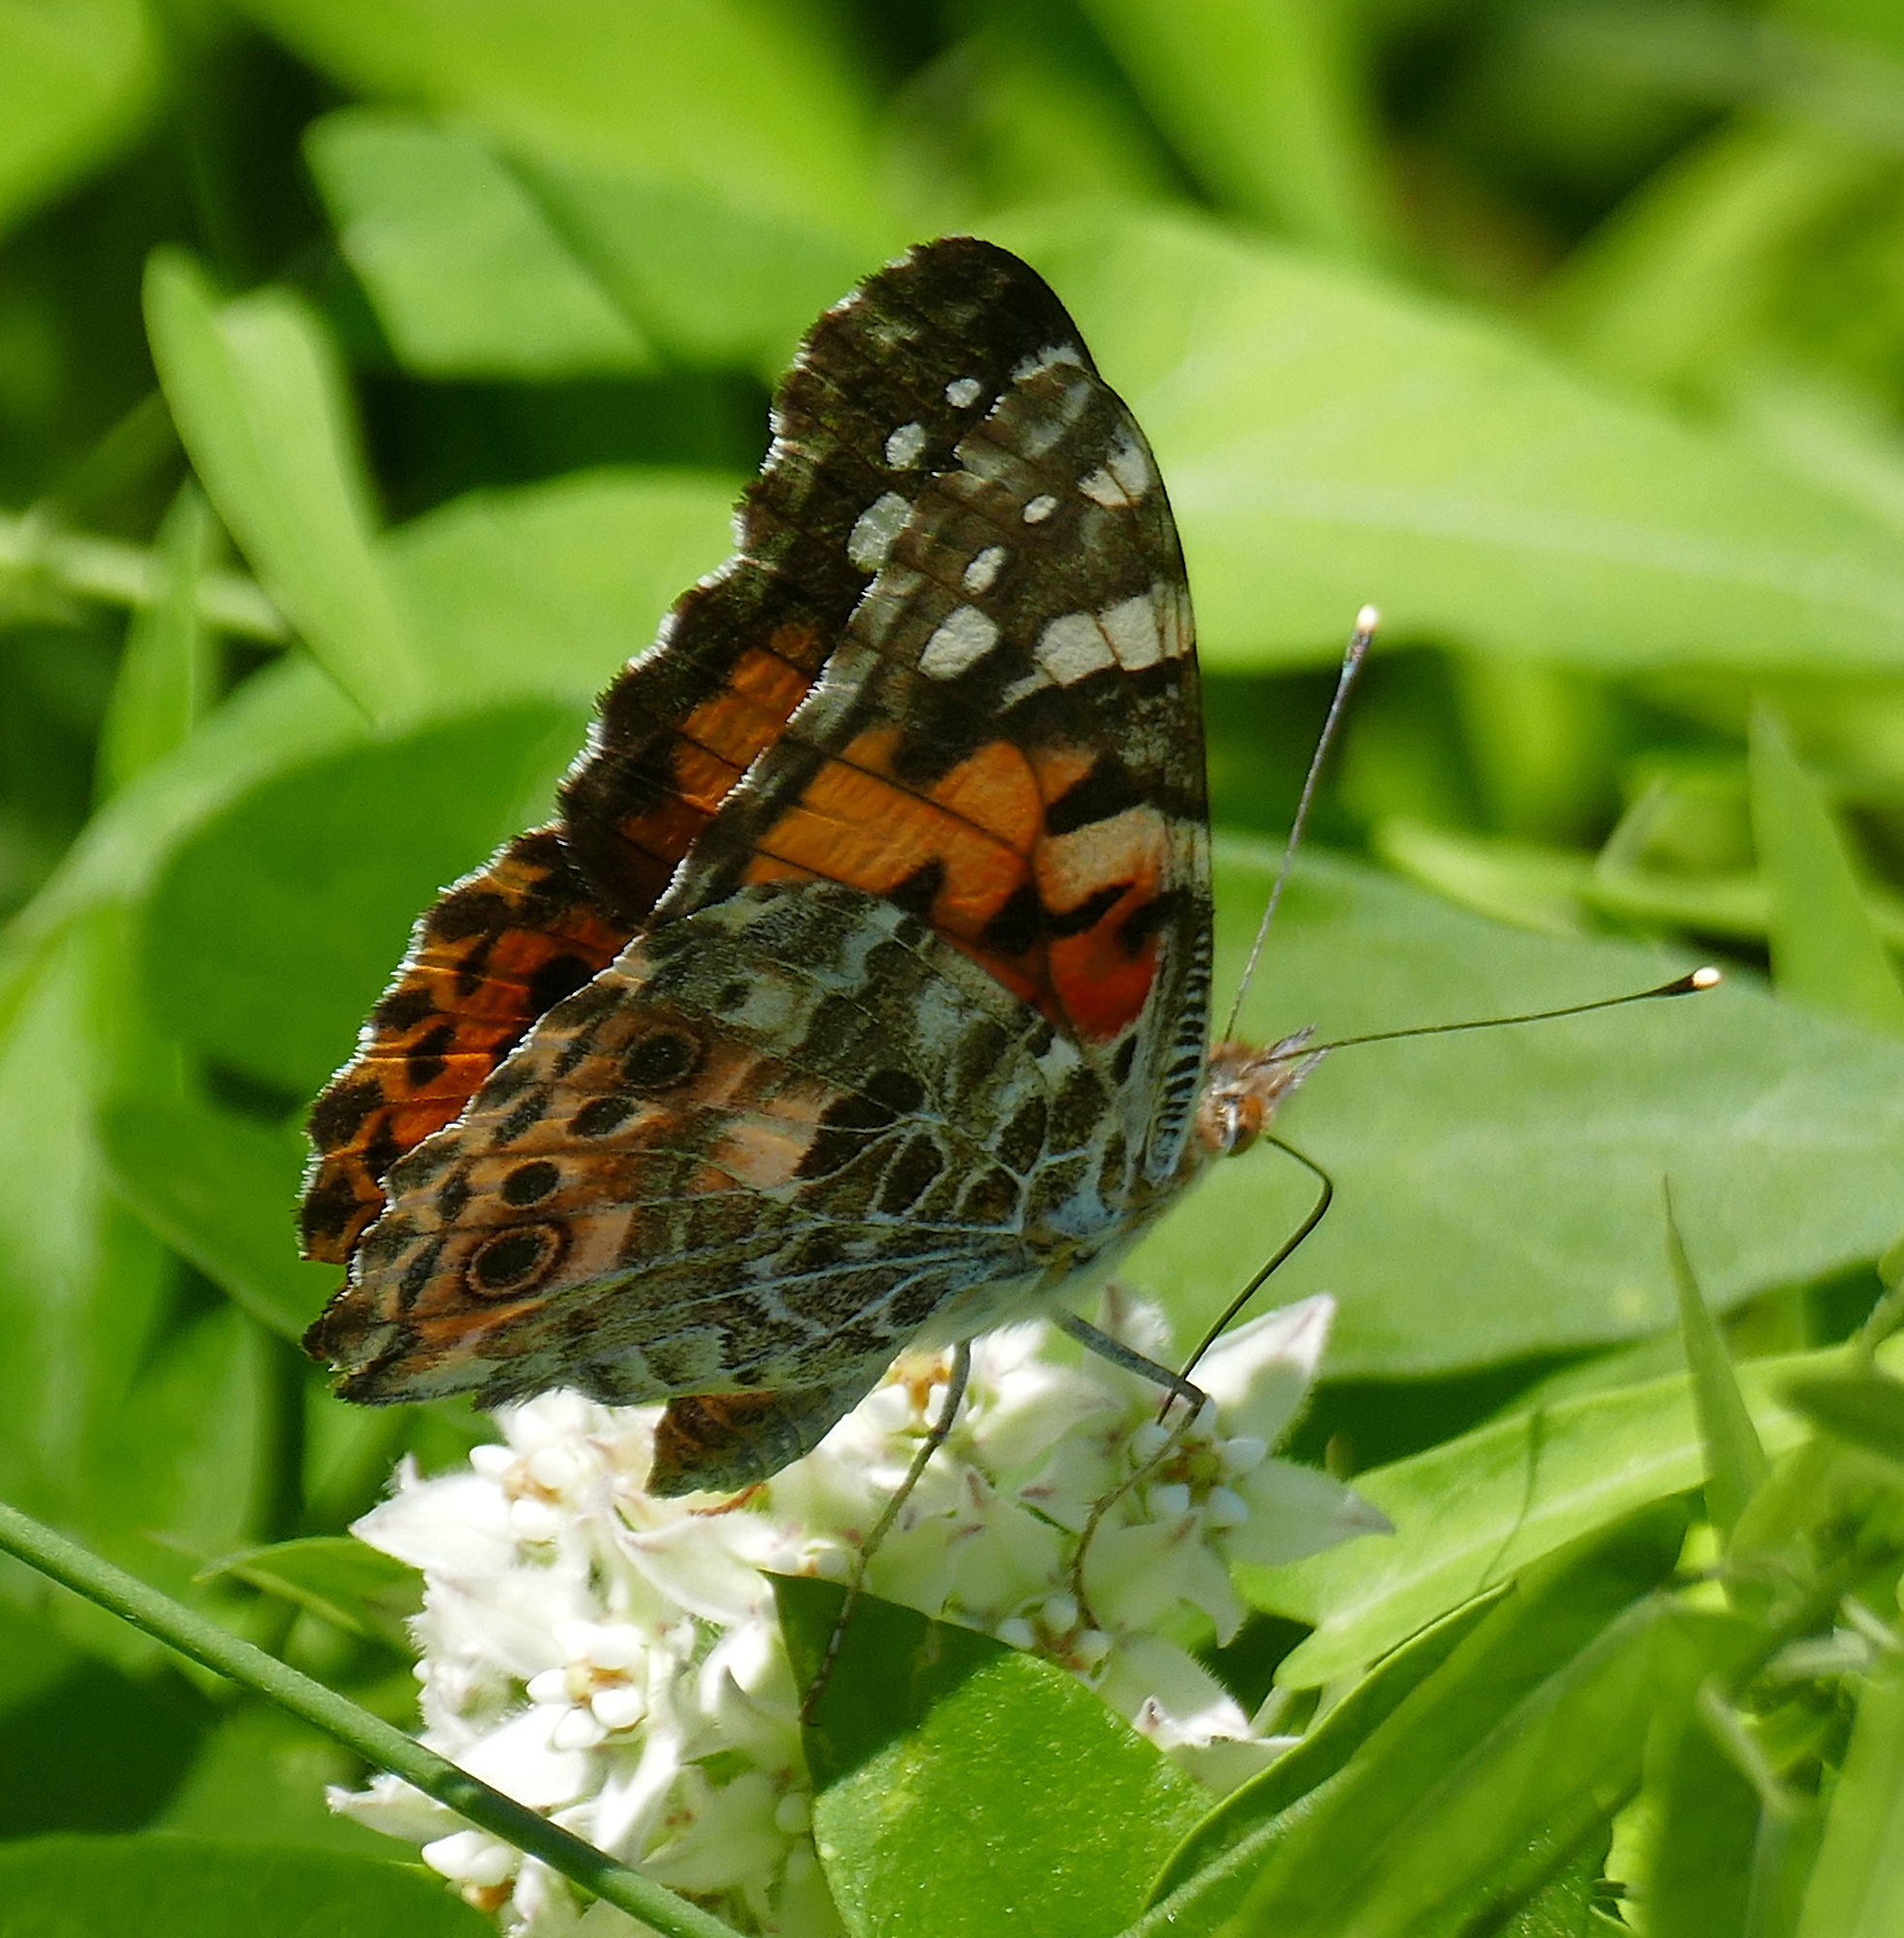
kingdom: Animalia
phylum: Arthropoda
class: Insecta
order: Lepidoptera
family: Nymphalidae
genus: Vanessa
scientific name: Vanessa cardui
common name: Painted lady
